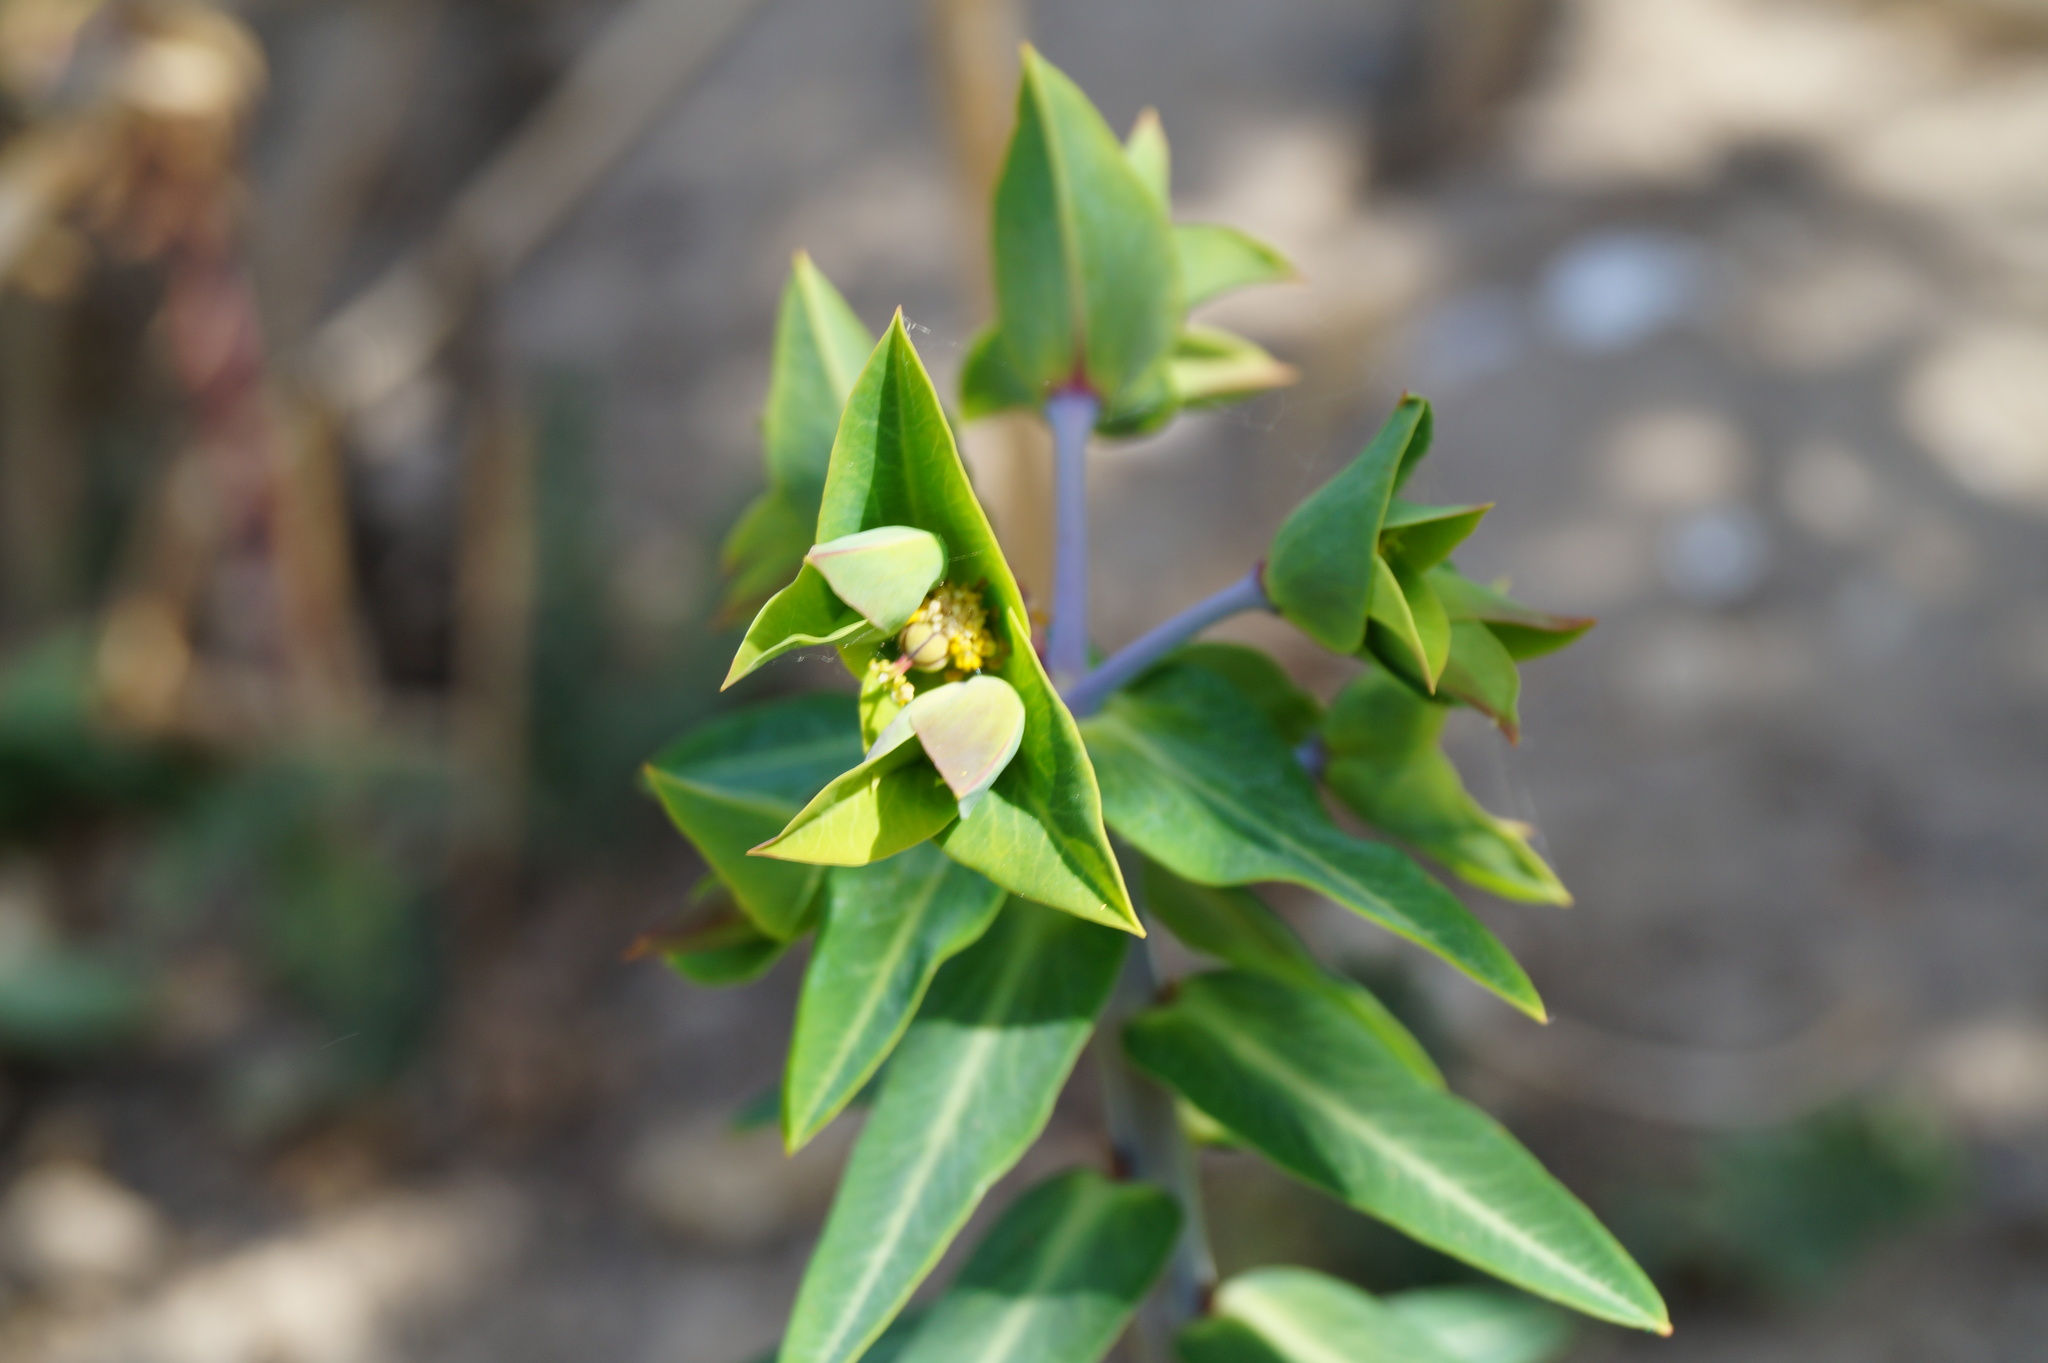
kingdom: Plantae
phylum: Tracheophyta
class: Magnoliopsida
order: Malpighiales
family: Euphorbiaceae
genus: Euphorbia
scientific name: Euphorbia lathyris
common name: Caper spurge
